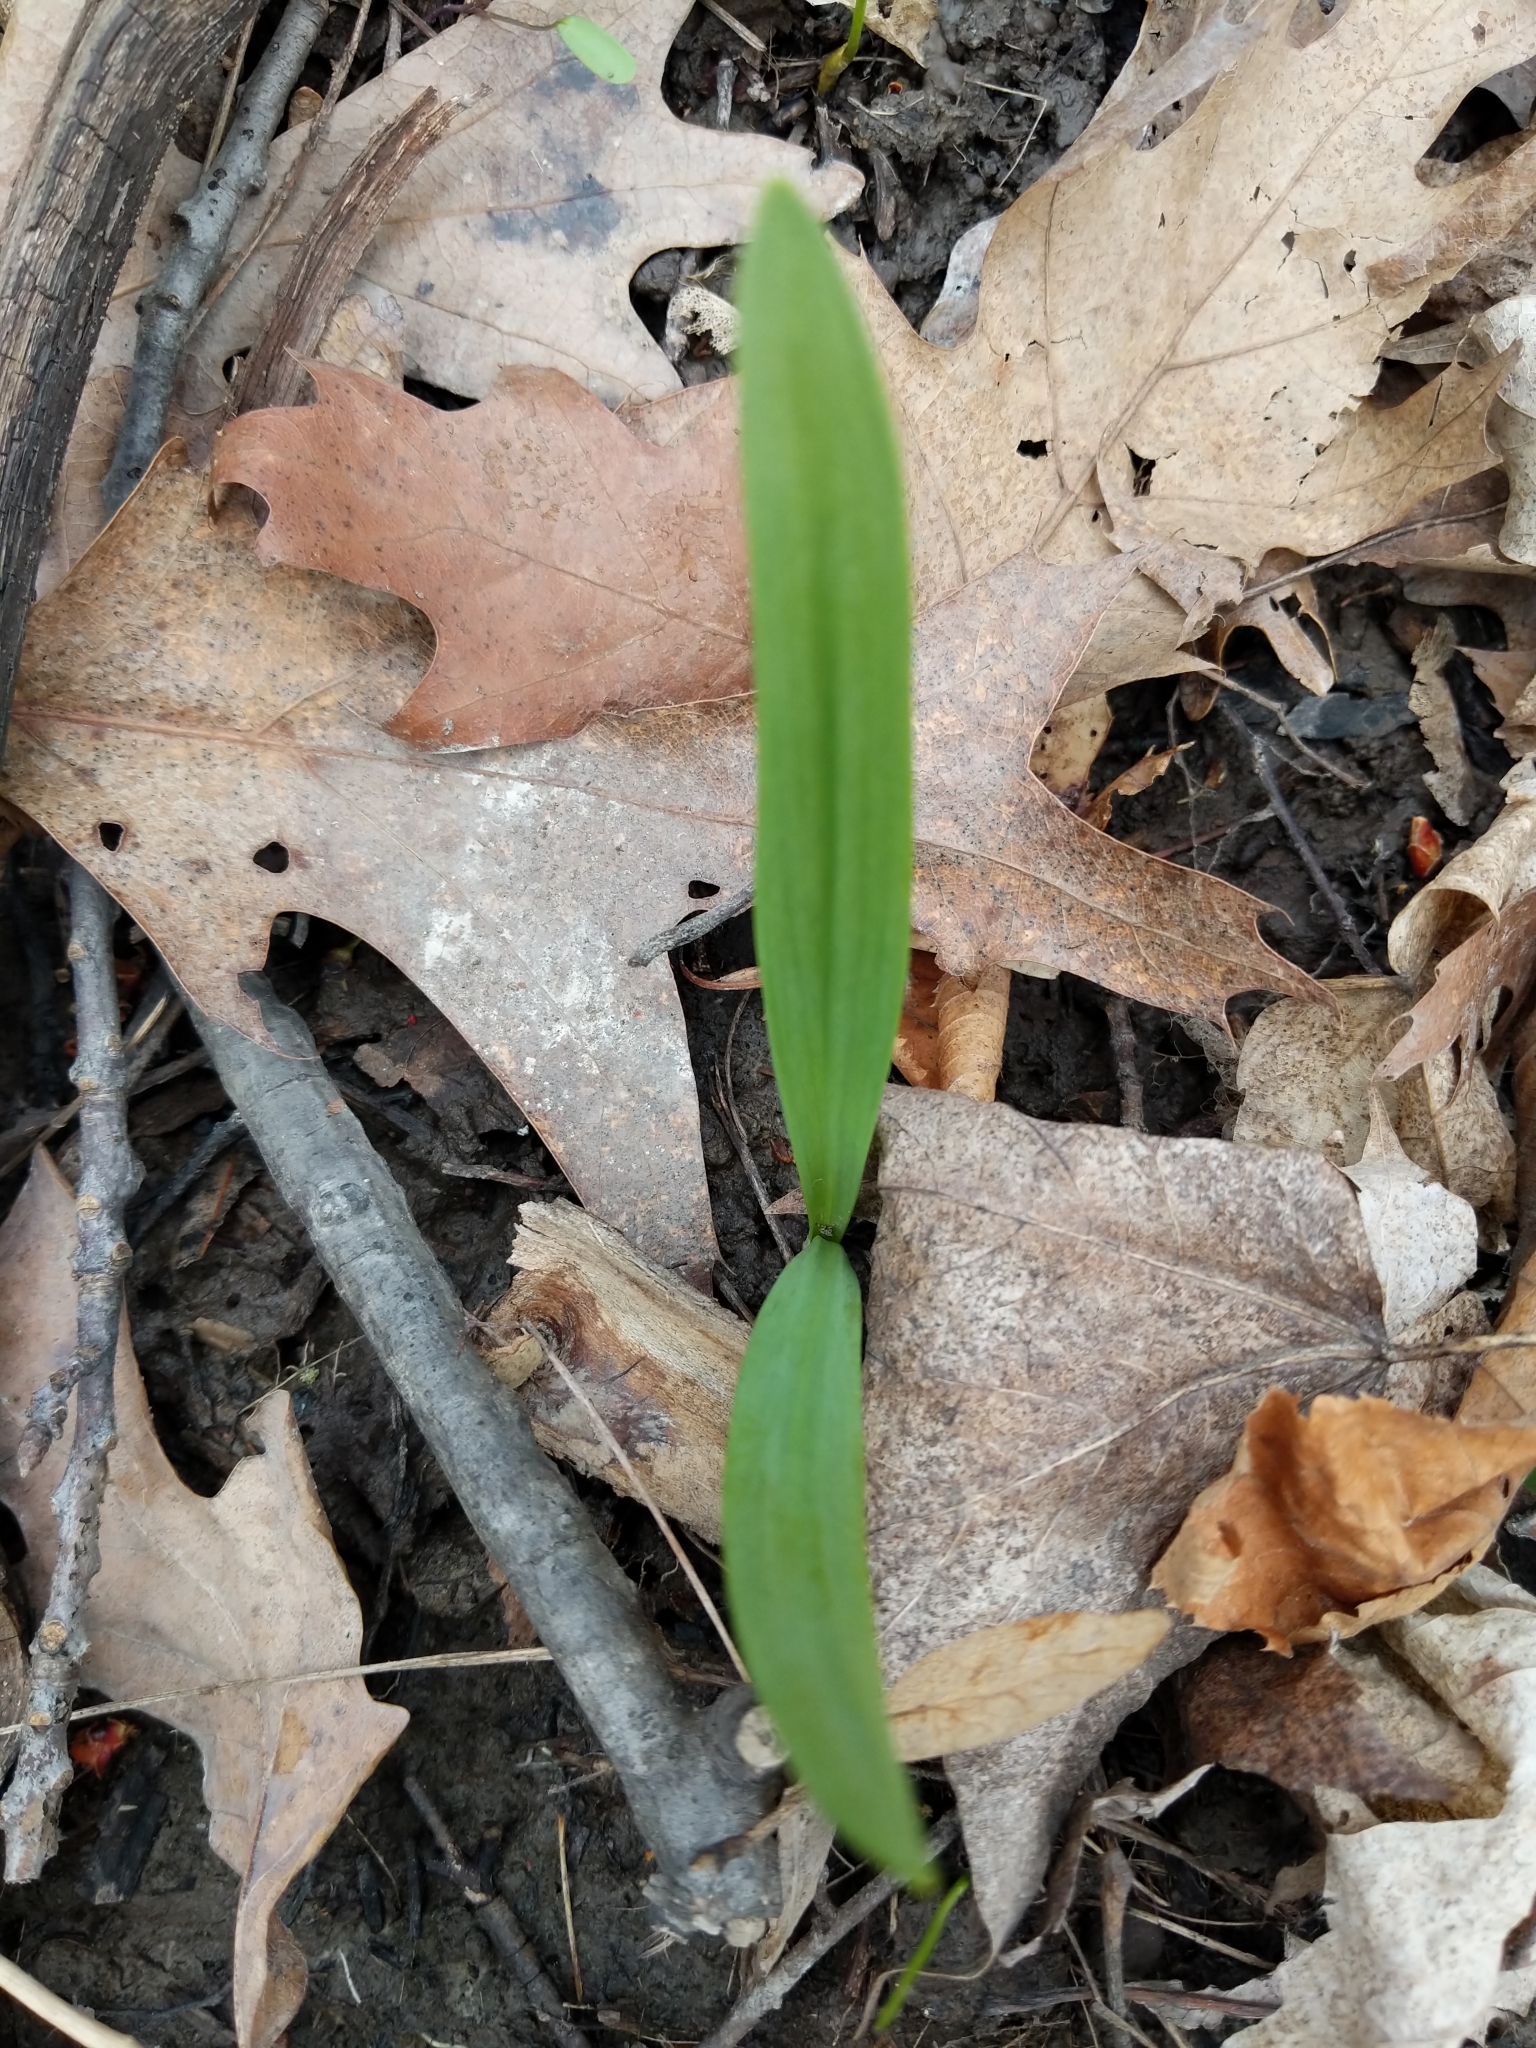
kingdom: Plantae
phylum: Tracheophyta
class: Liliopsida
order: Asparagales
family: Amaryllidaceae
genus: Allium
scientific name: Allium tricoccum
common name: Ramp
